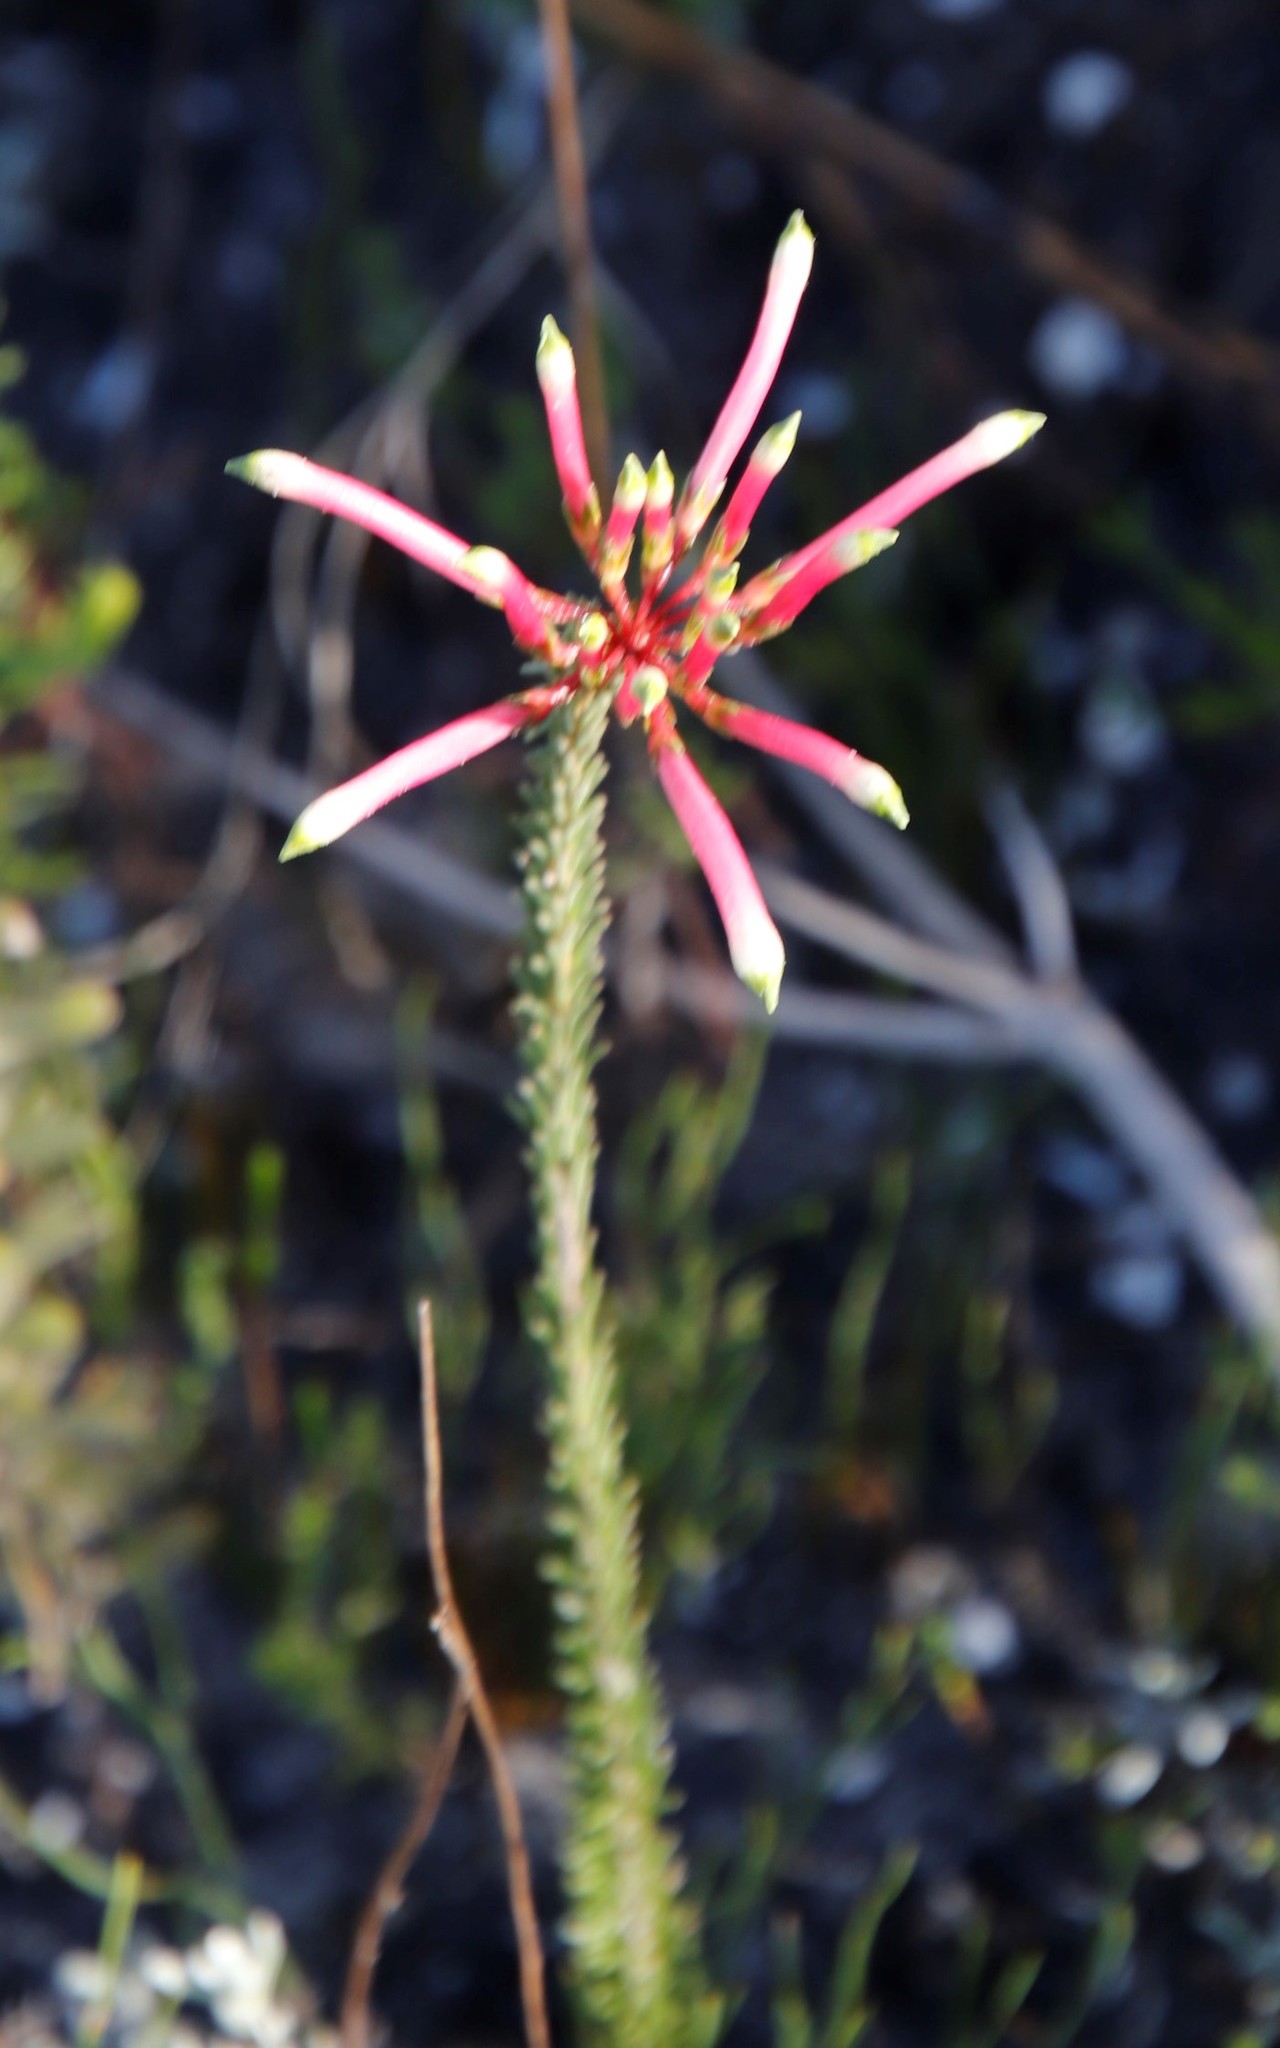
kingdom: Plantae
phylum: Tracheophyta
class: Magnoliopsida
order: Ericales
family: Ericaceae
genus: Erica
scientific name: Erica fascicularis
